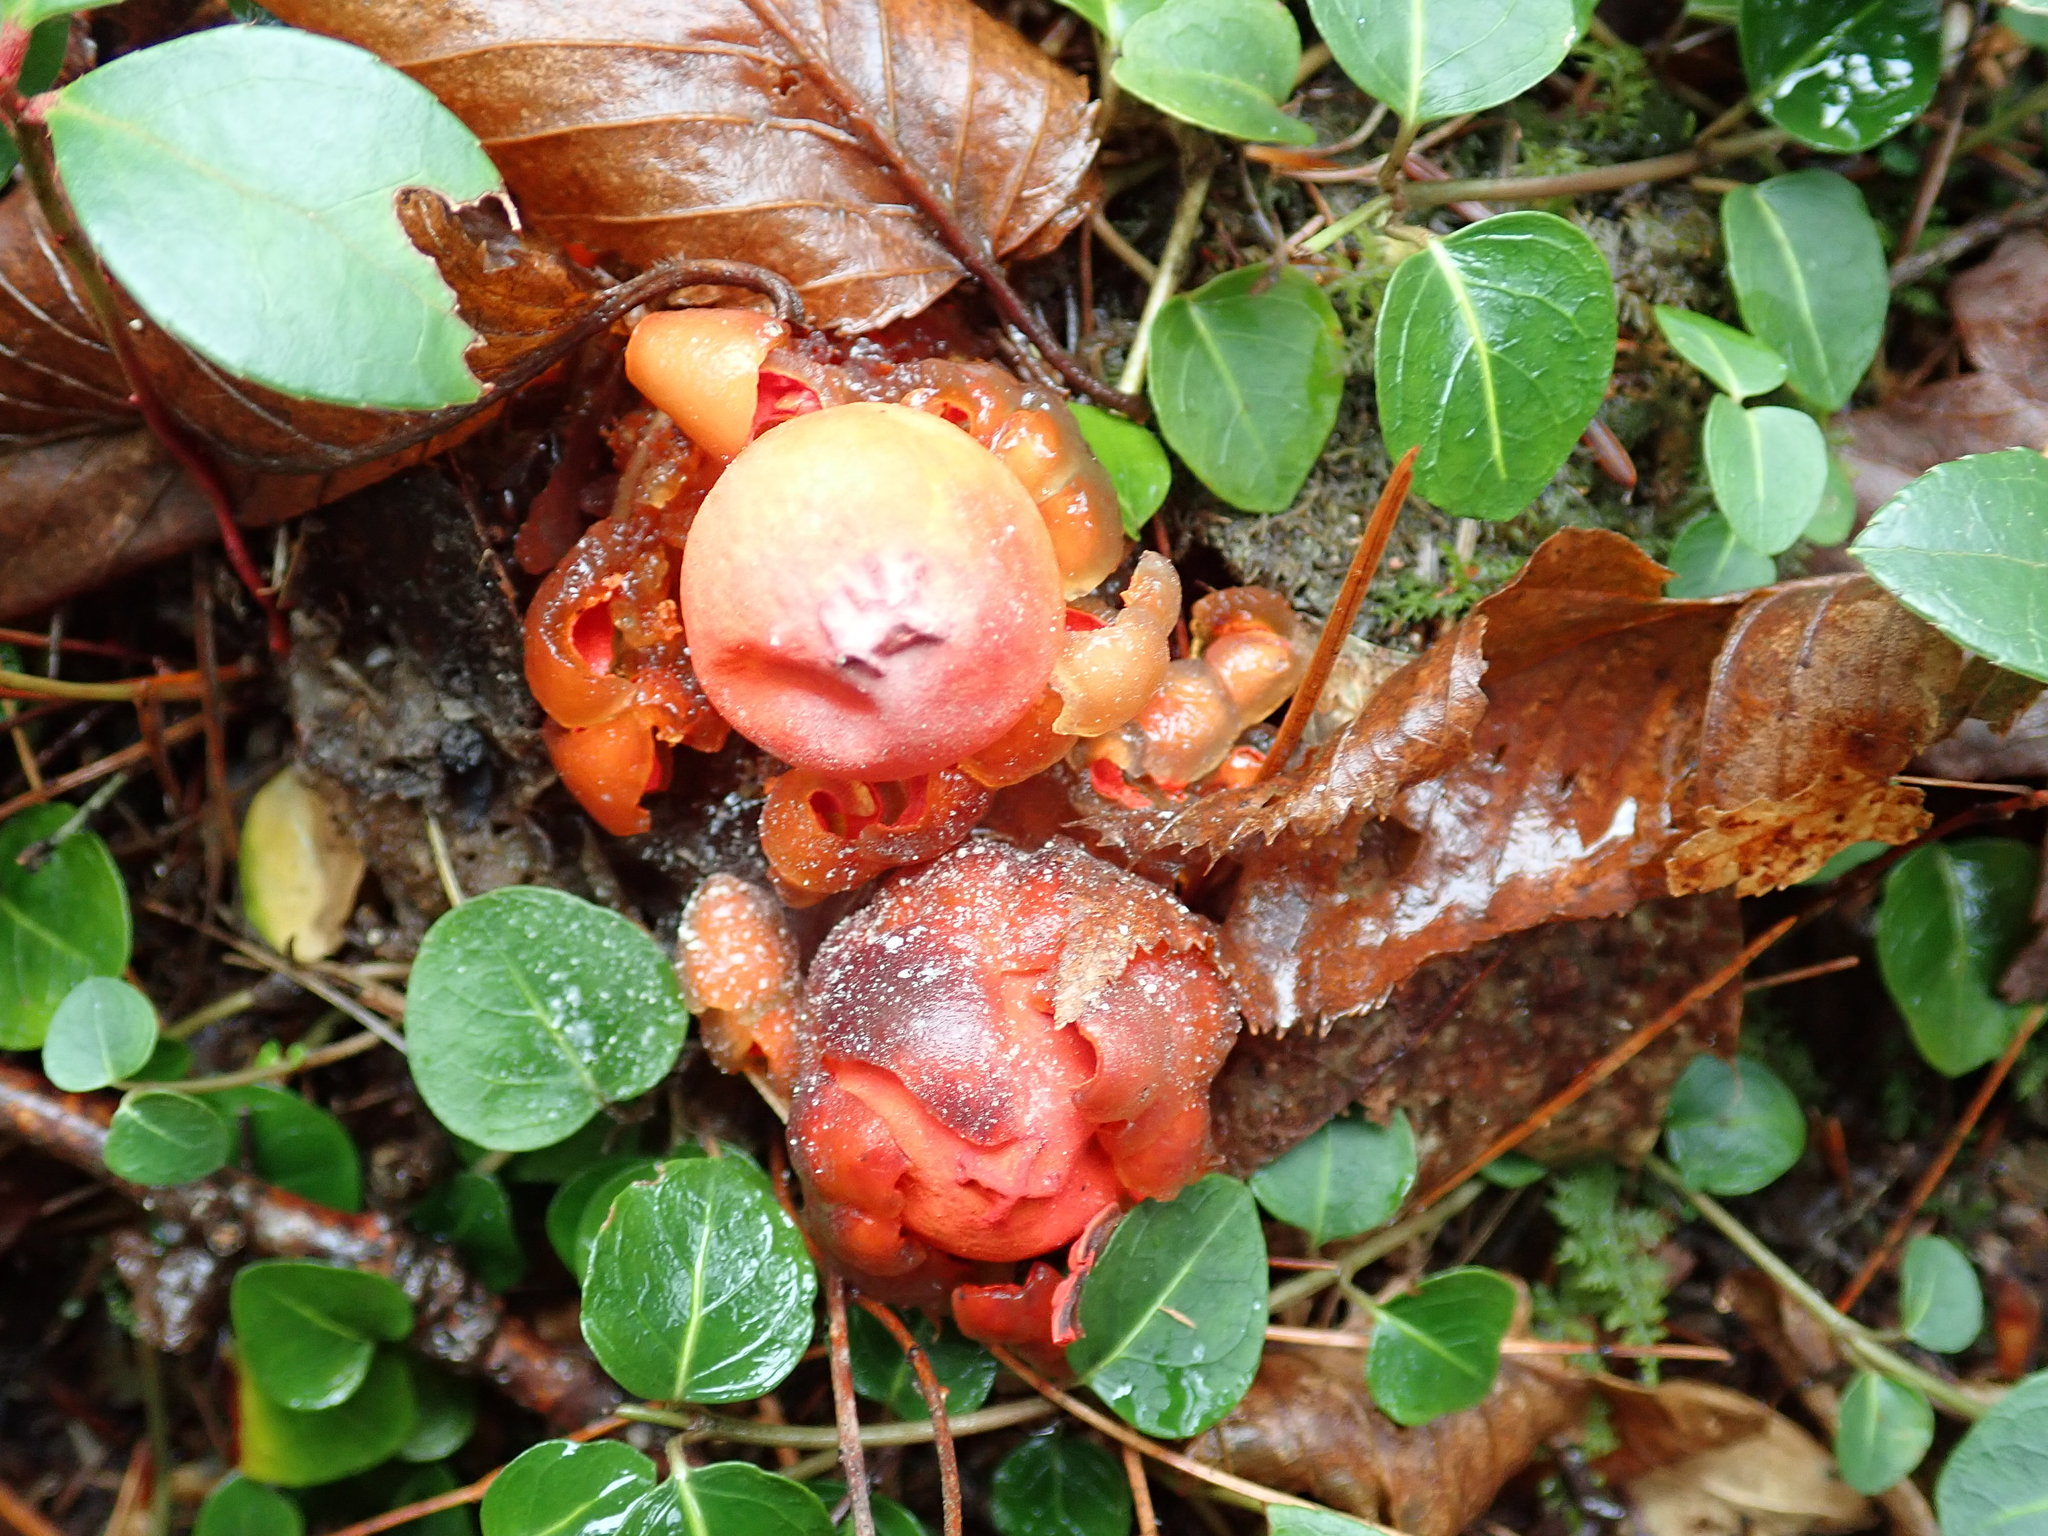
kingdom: Fungi
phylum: Basidiomycota
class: Agaricomycetes
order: Boletales
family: Calostomataceae
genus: Calostoma
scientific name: Calostoma cinnabarinum
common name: Stalked puffball-in-aspic
